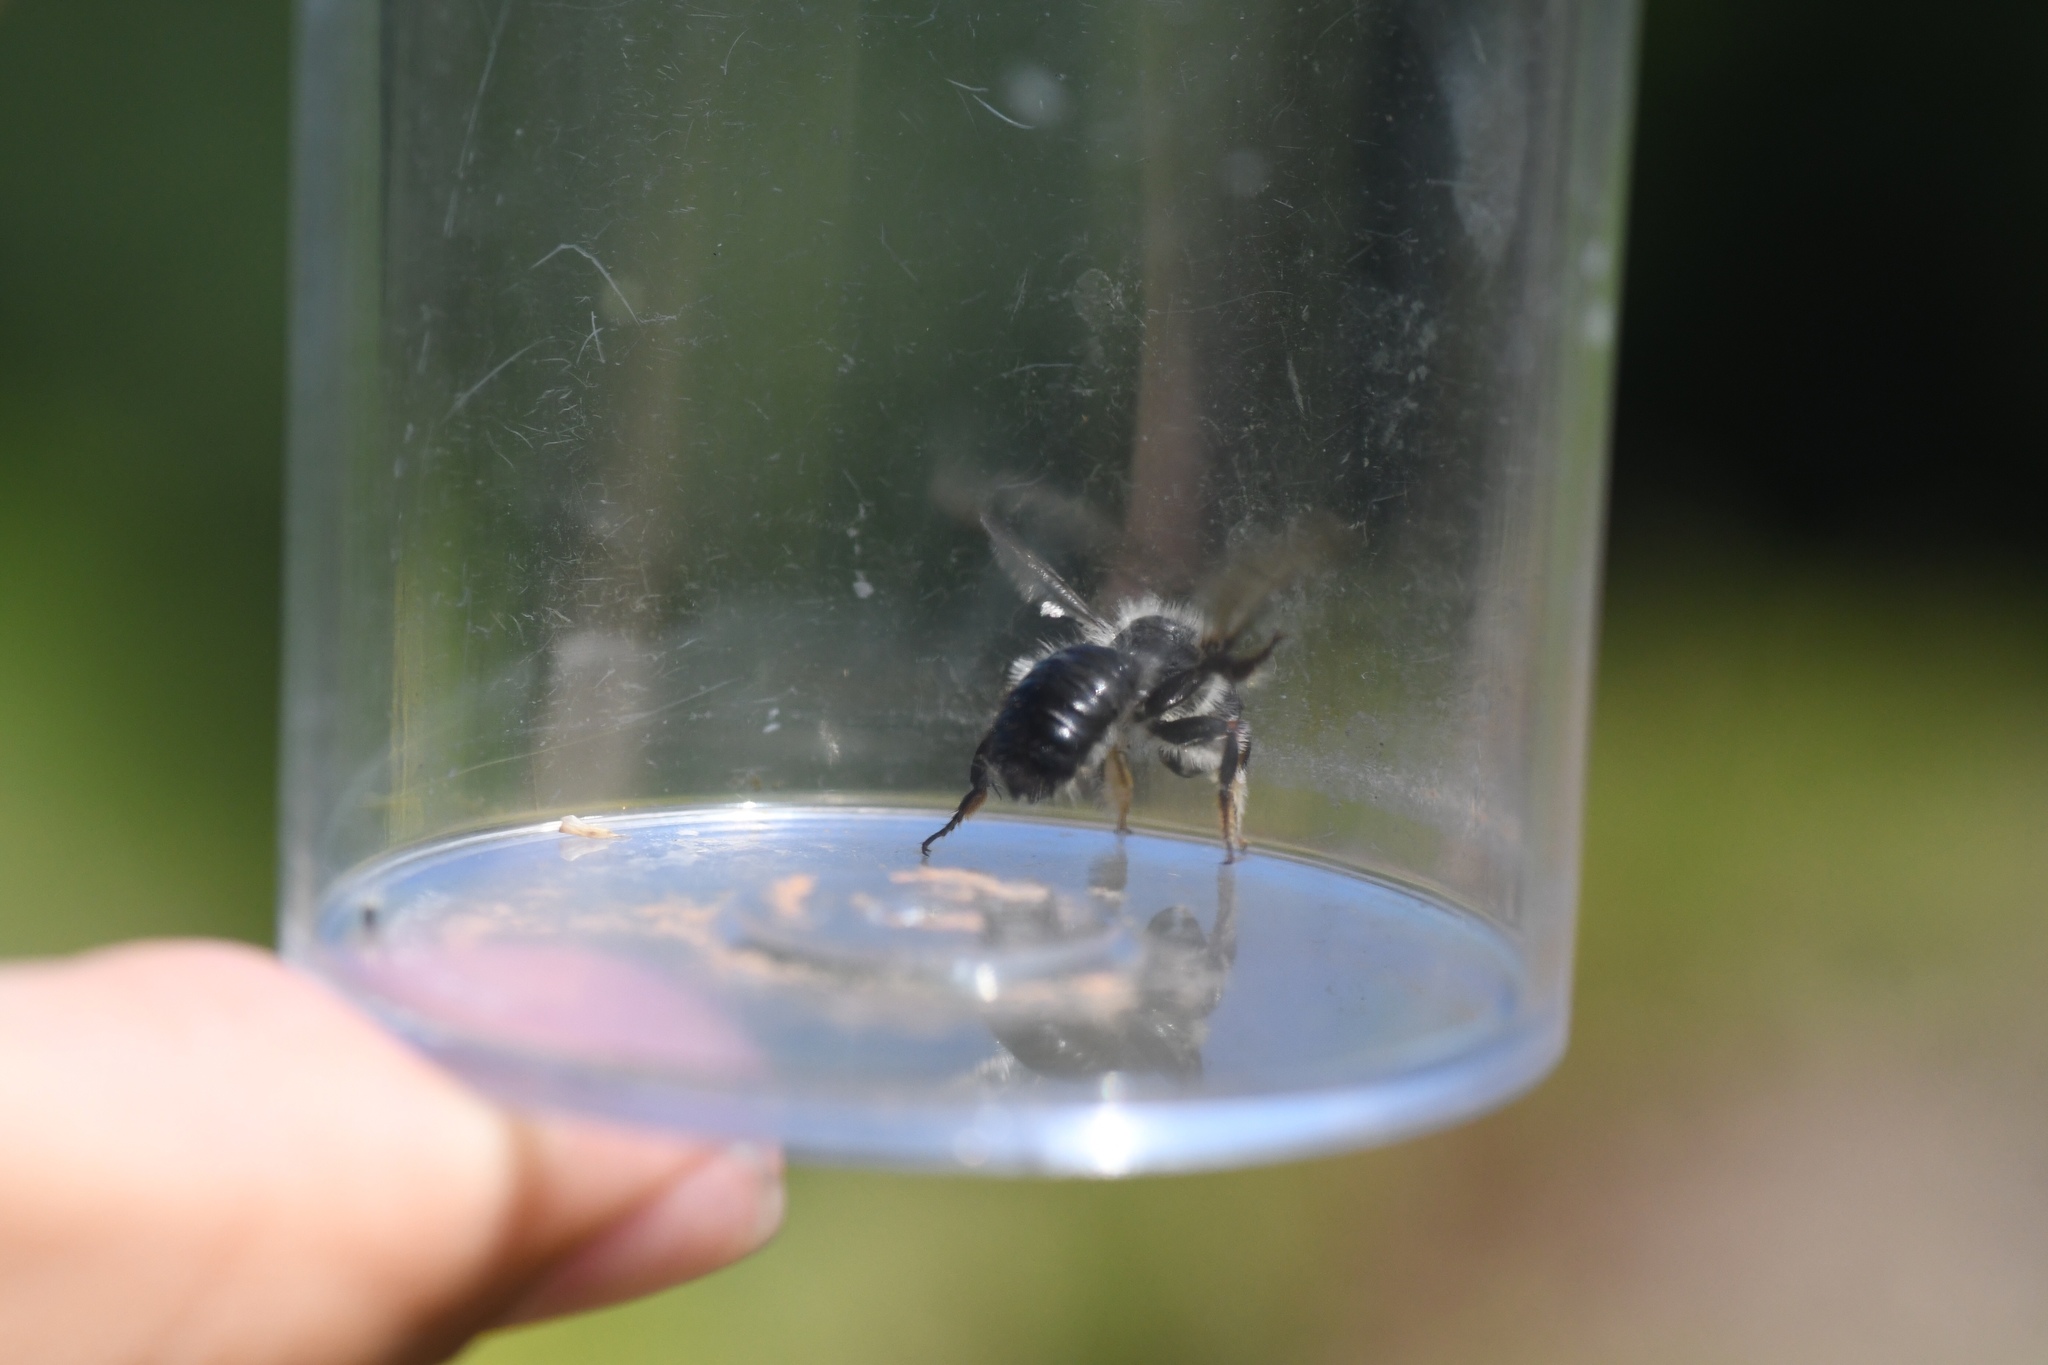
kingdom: Animalia
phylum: Arthropoda
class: Insecta
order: Hymenoptera
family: Megachilidae
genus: Megachile
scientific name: Megachile melanophaea
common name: Black-and-gray leafcutter bee
